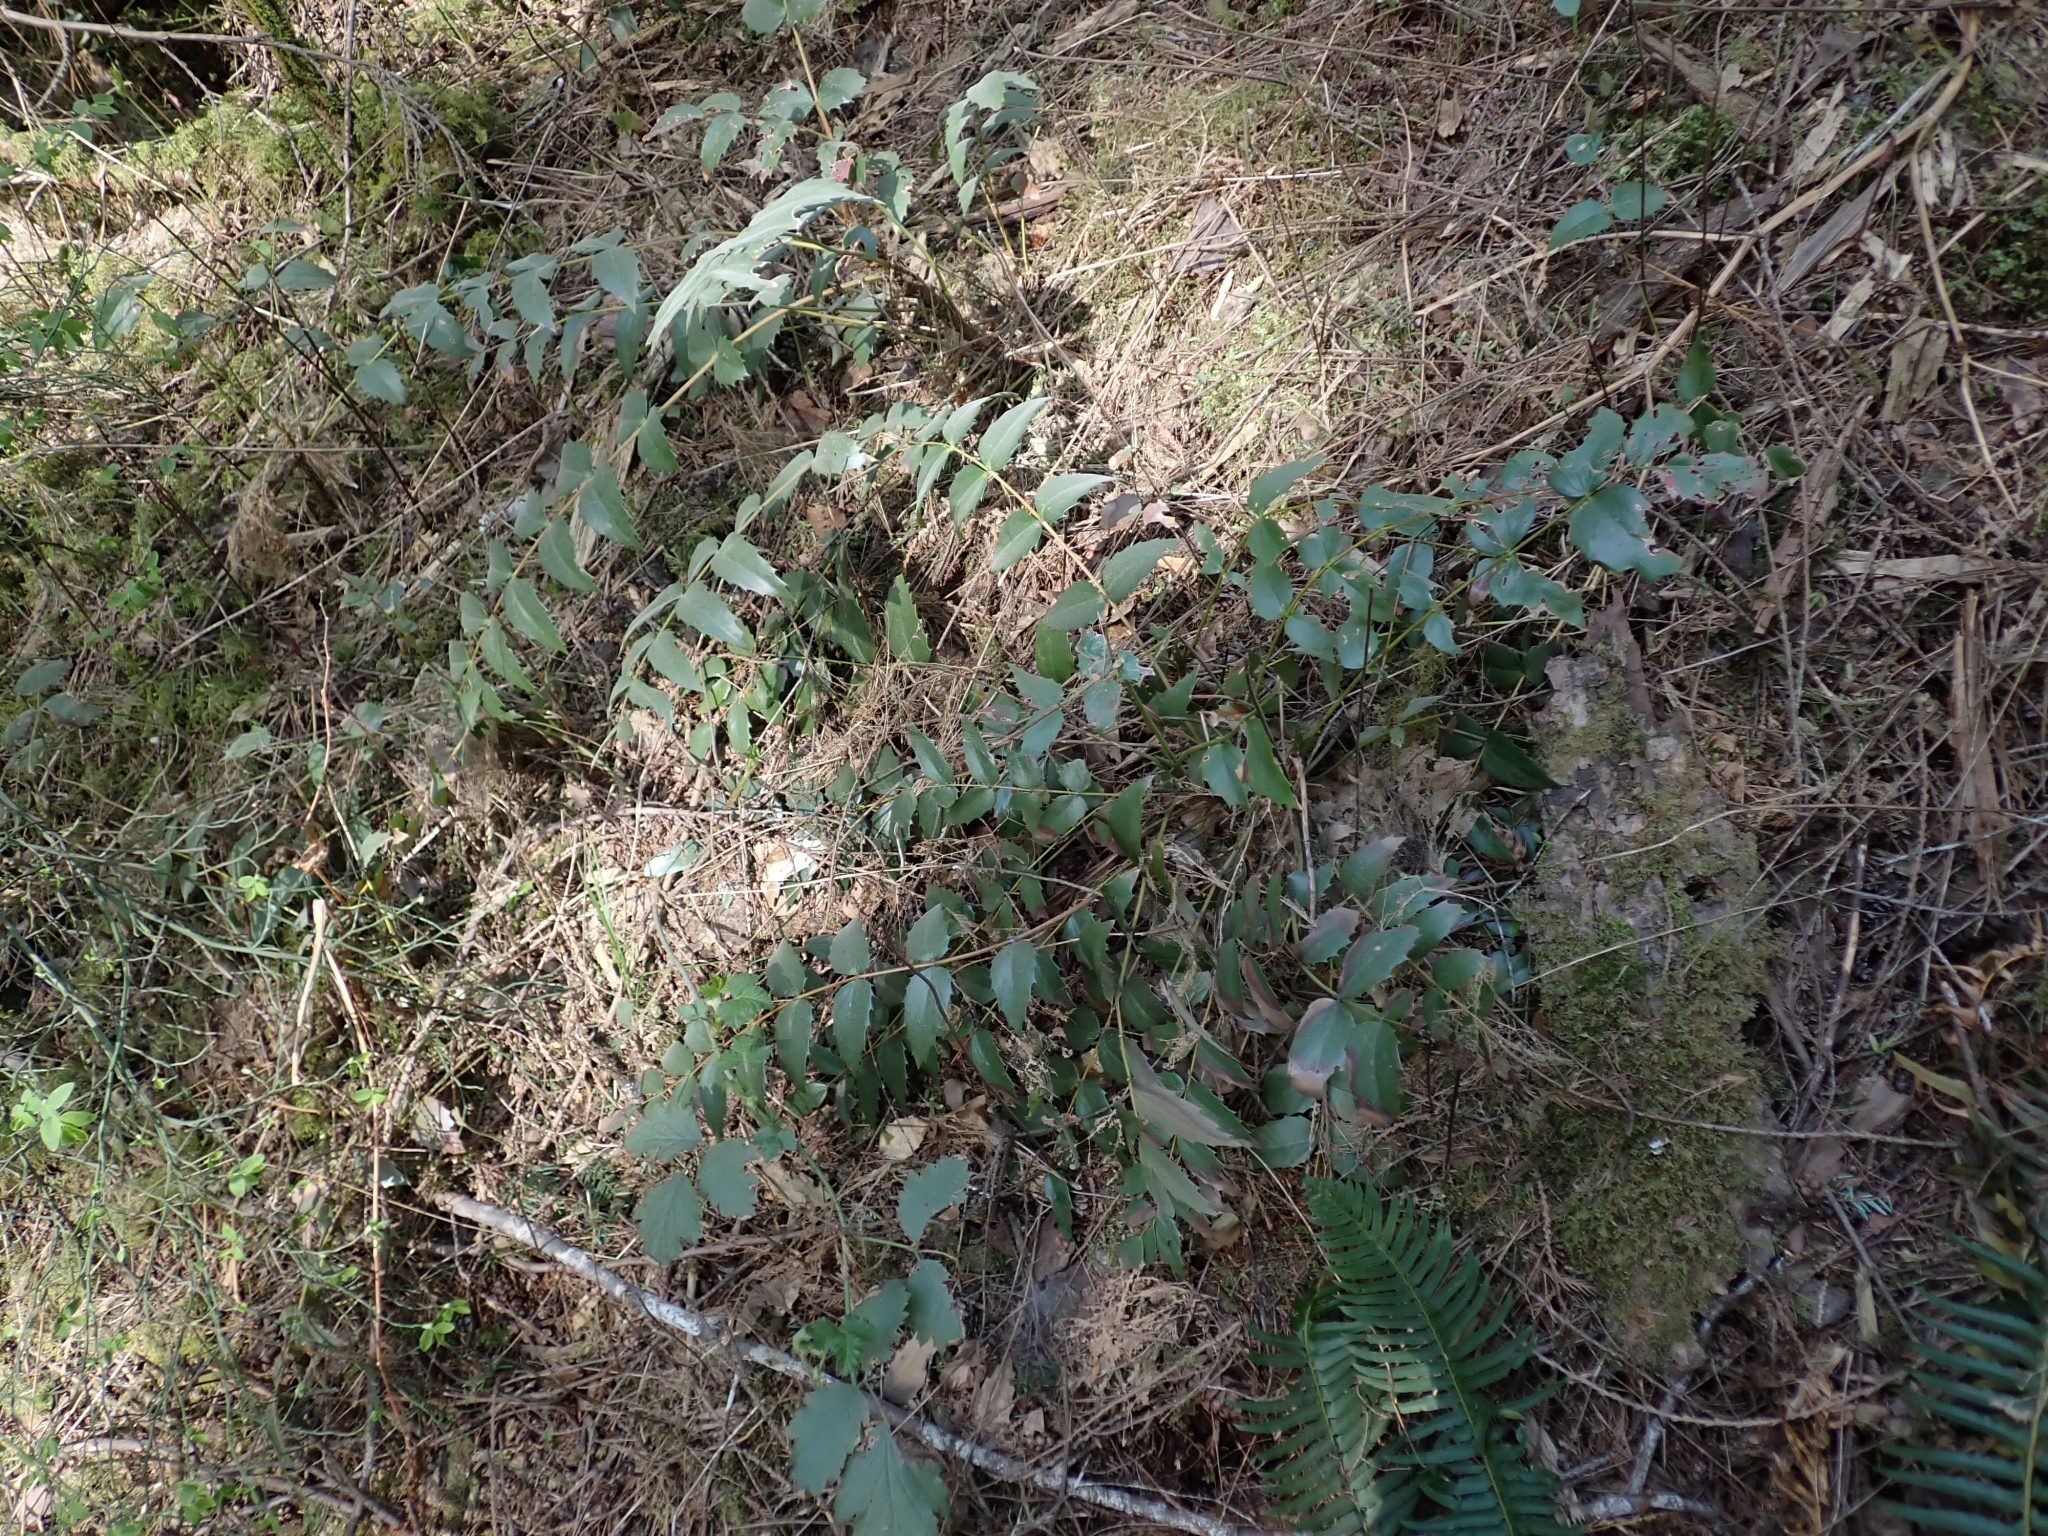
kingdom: Plantae
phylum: Tracheophyta
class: Magnoliopsida
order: Ranunculales
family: Berberidaceae
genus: Mahonia
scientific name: Mahonia nervosa
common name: Cascade oregon-grape
